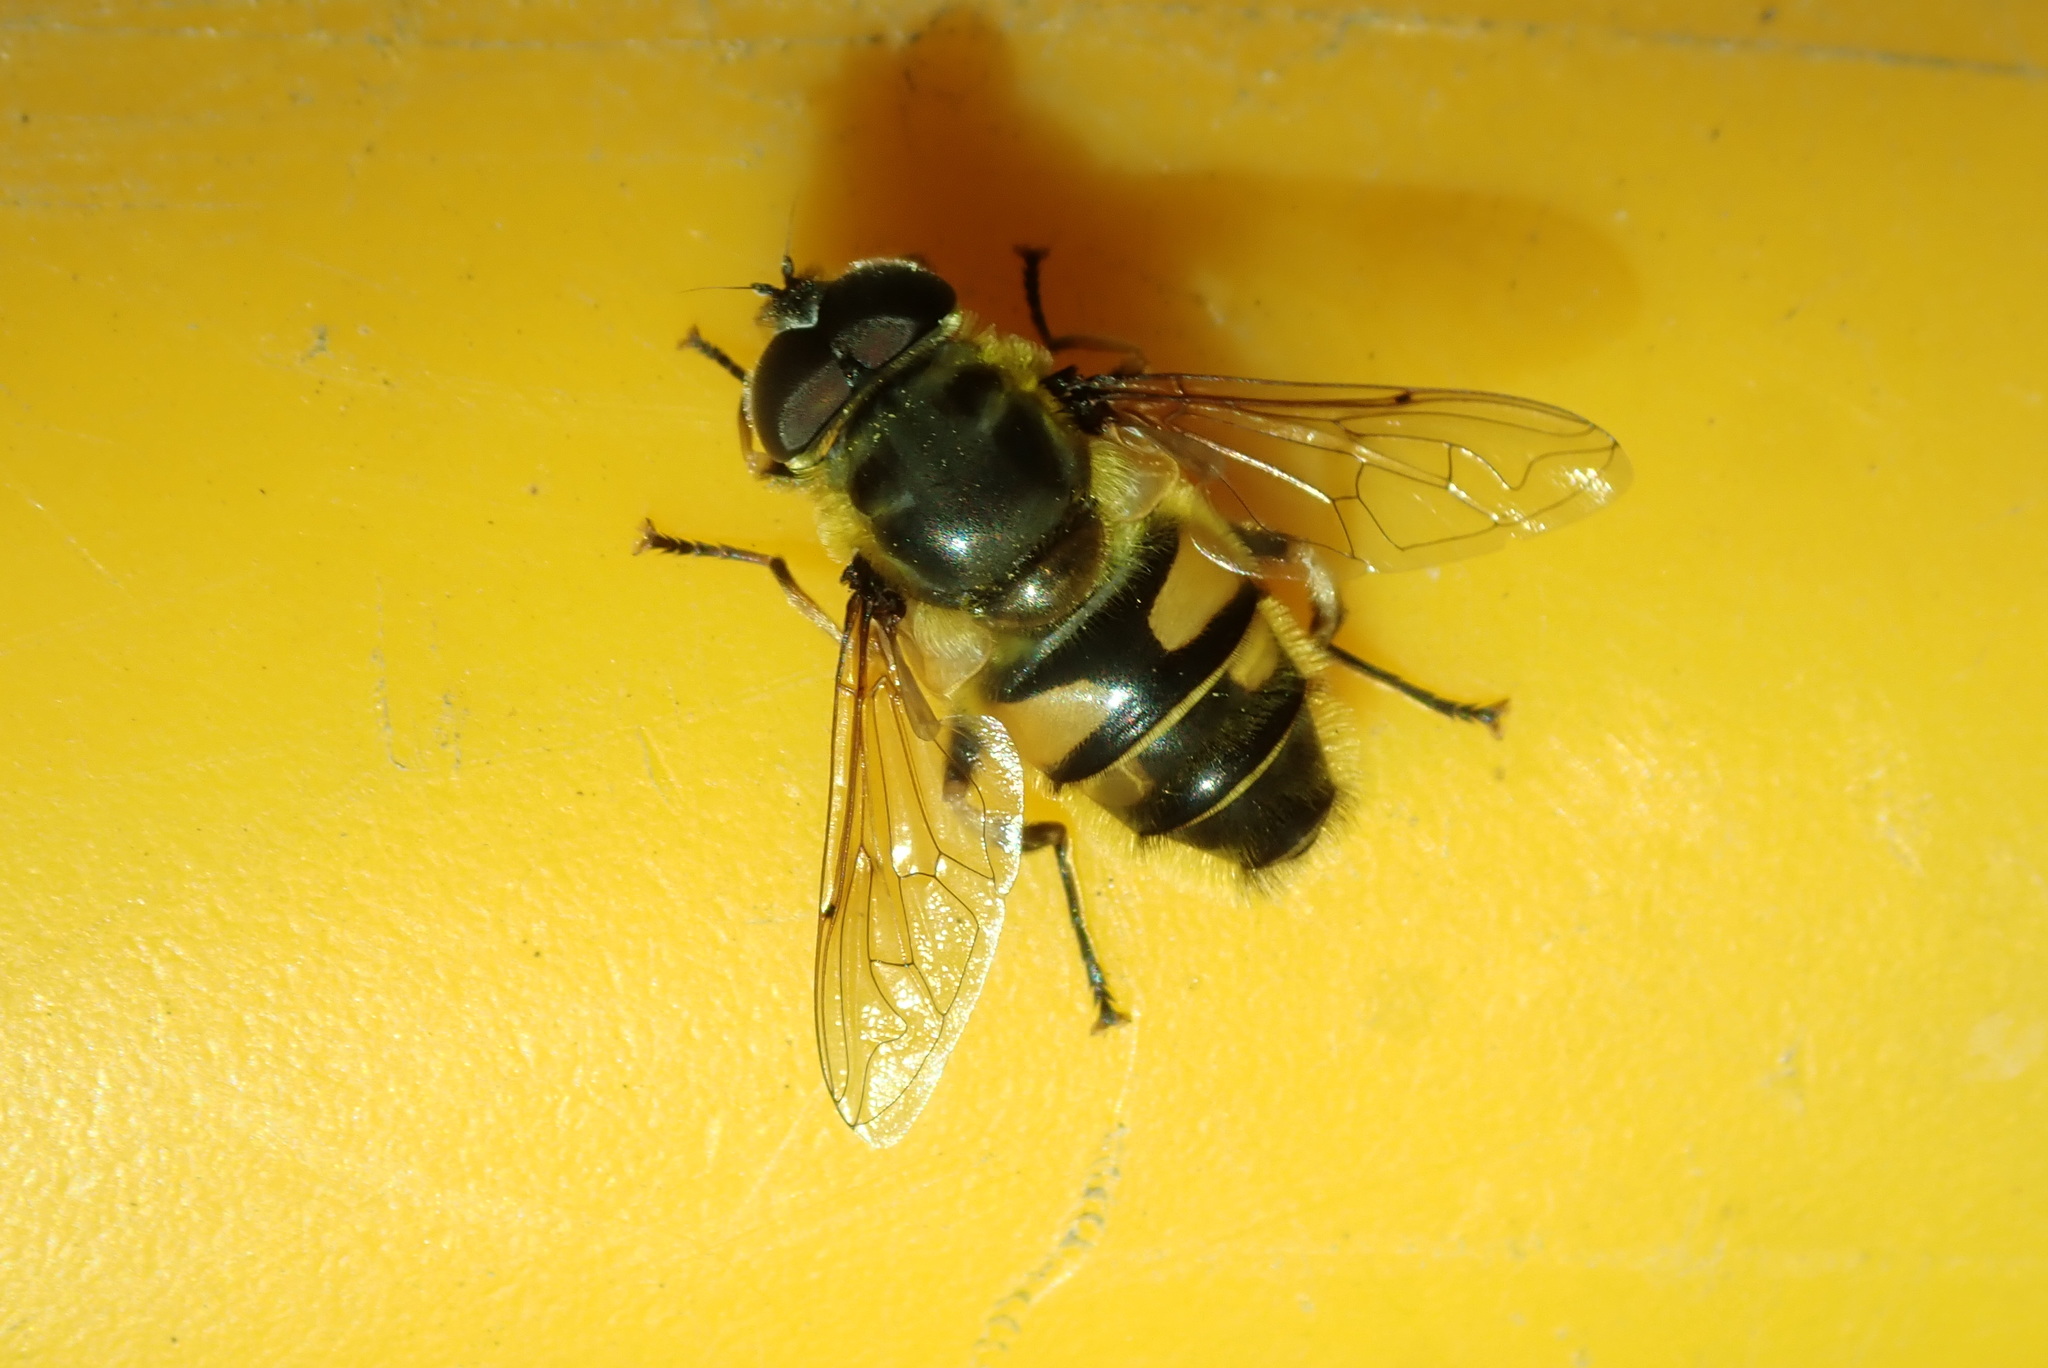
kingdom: Animalia
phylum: Arthropoda
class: Insecta
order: Diptera
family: Syrphidae
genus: Myathropa
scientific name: Myathropa florea
